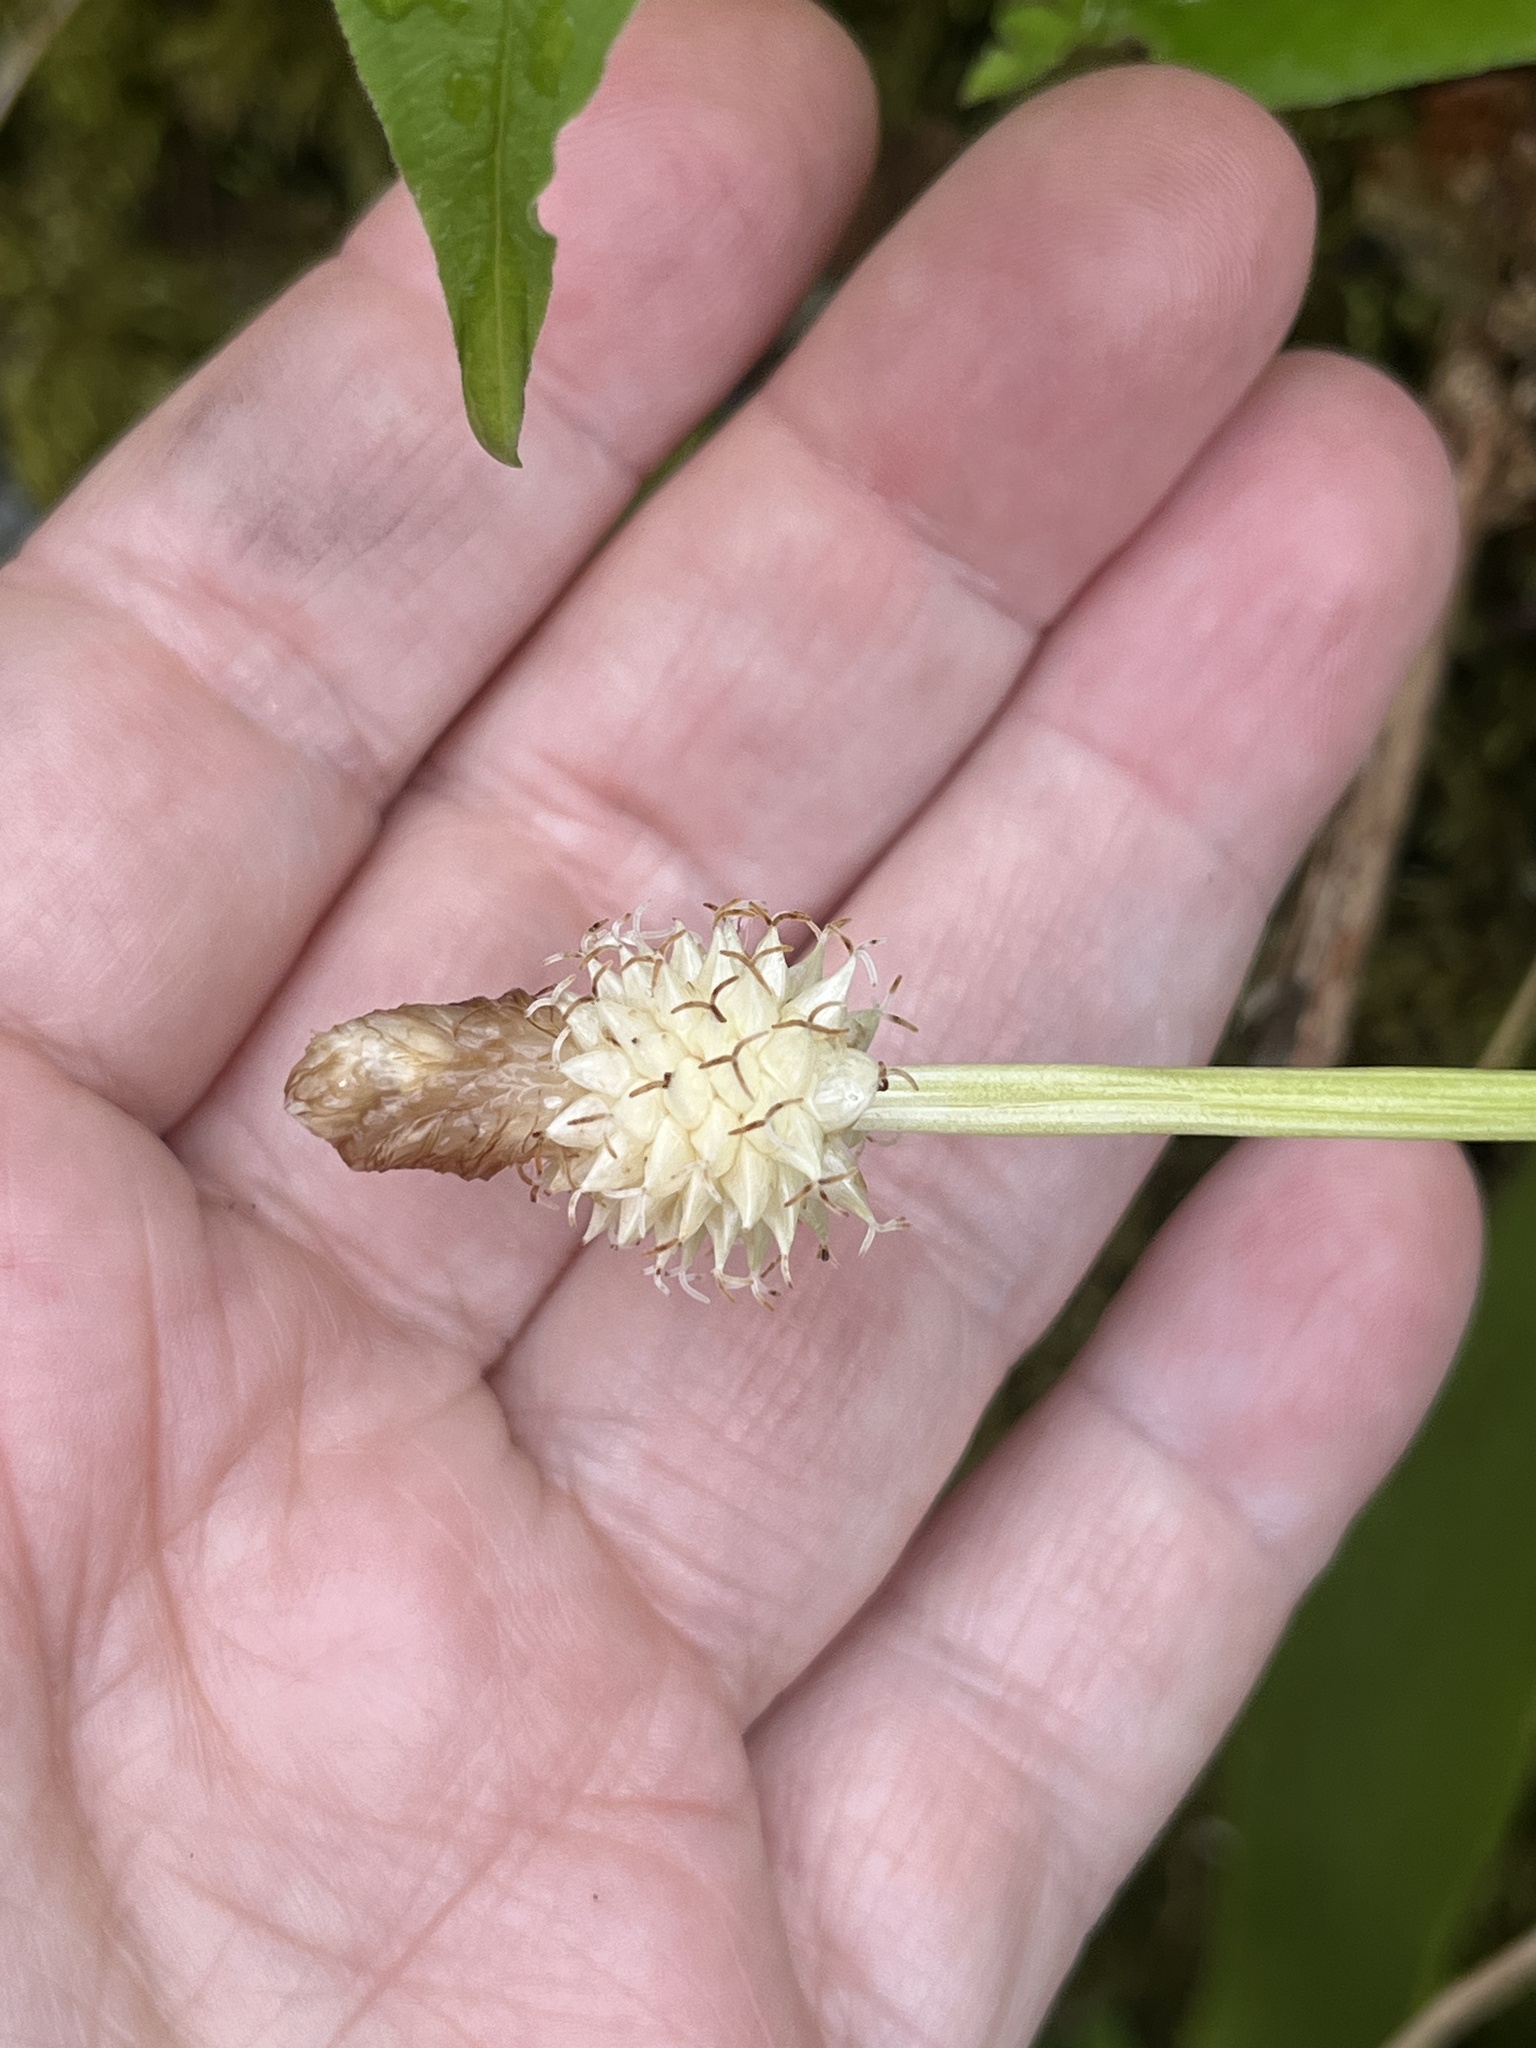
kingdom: Plantae
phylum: Tracheophyta
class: Liliopsida
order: Poales
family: Cyperaceae
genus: Carex
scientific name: Carex fraseriana
